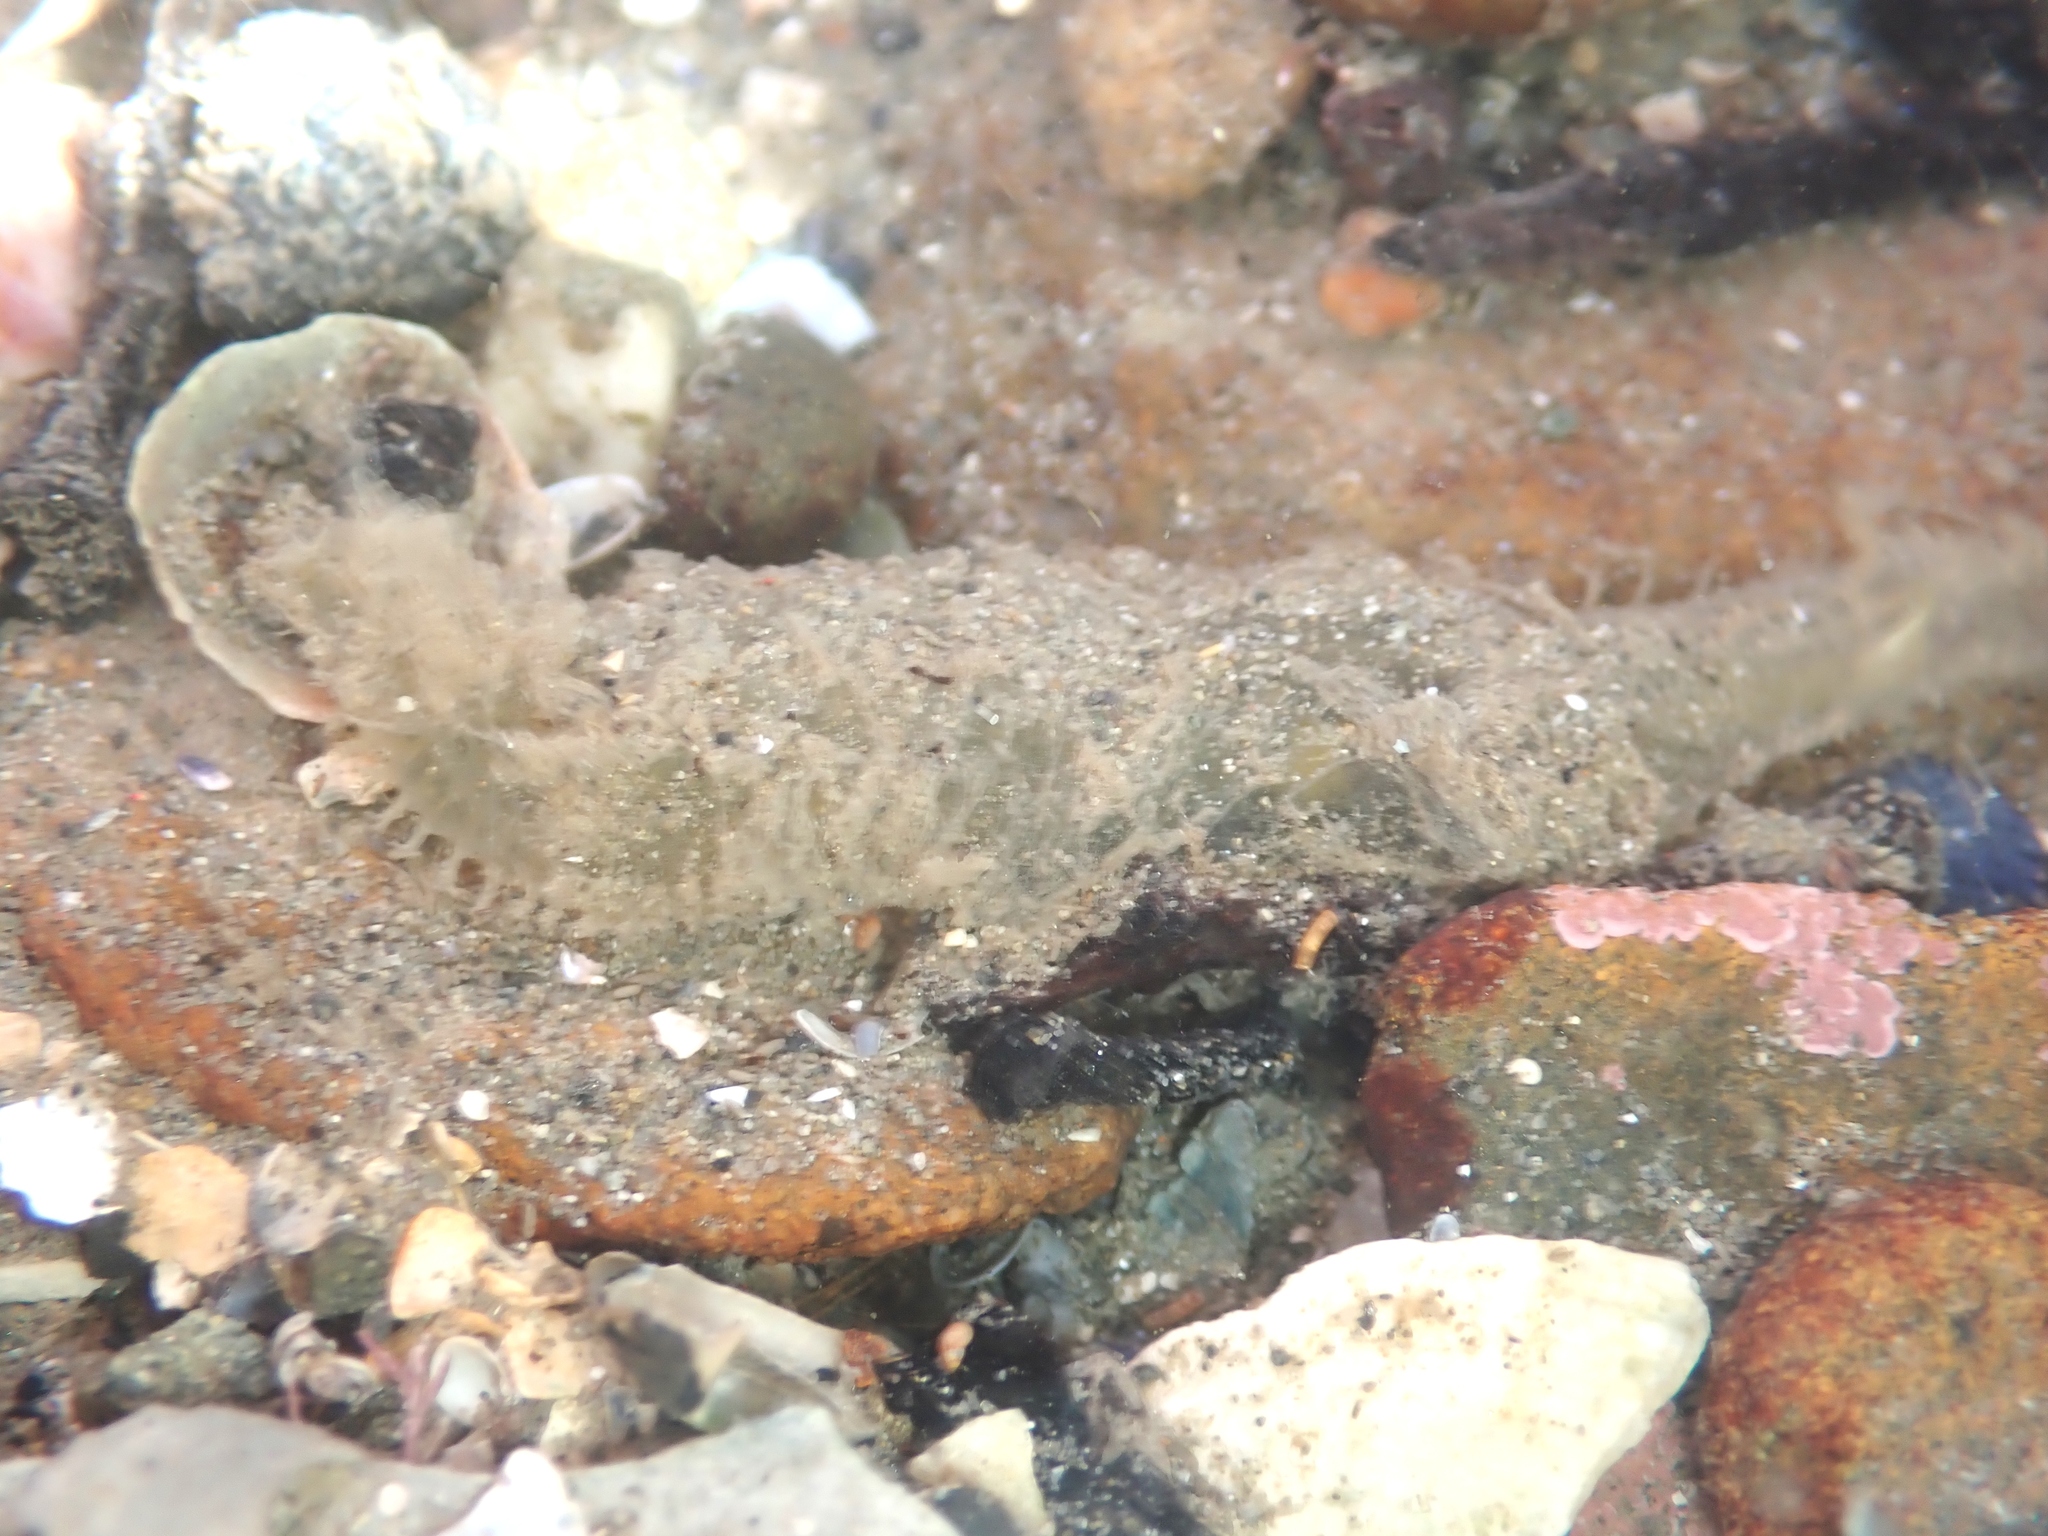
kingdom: Animalia
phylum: Annelida
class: Polychaeta
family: Flabelligeridae
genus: Flabelligera
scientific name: Flabelligera bicolor
